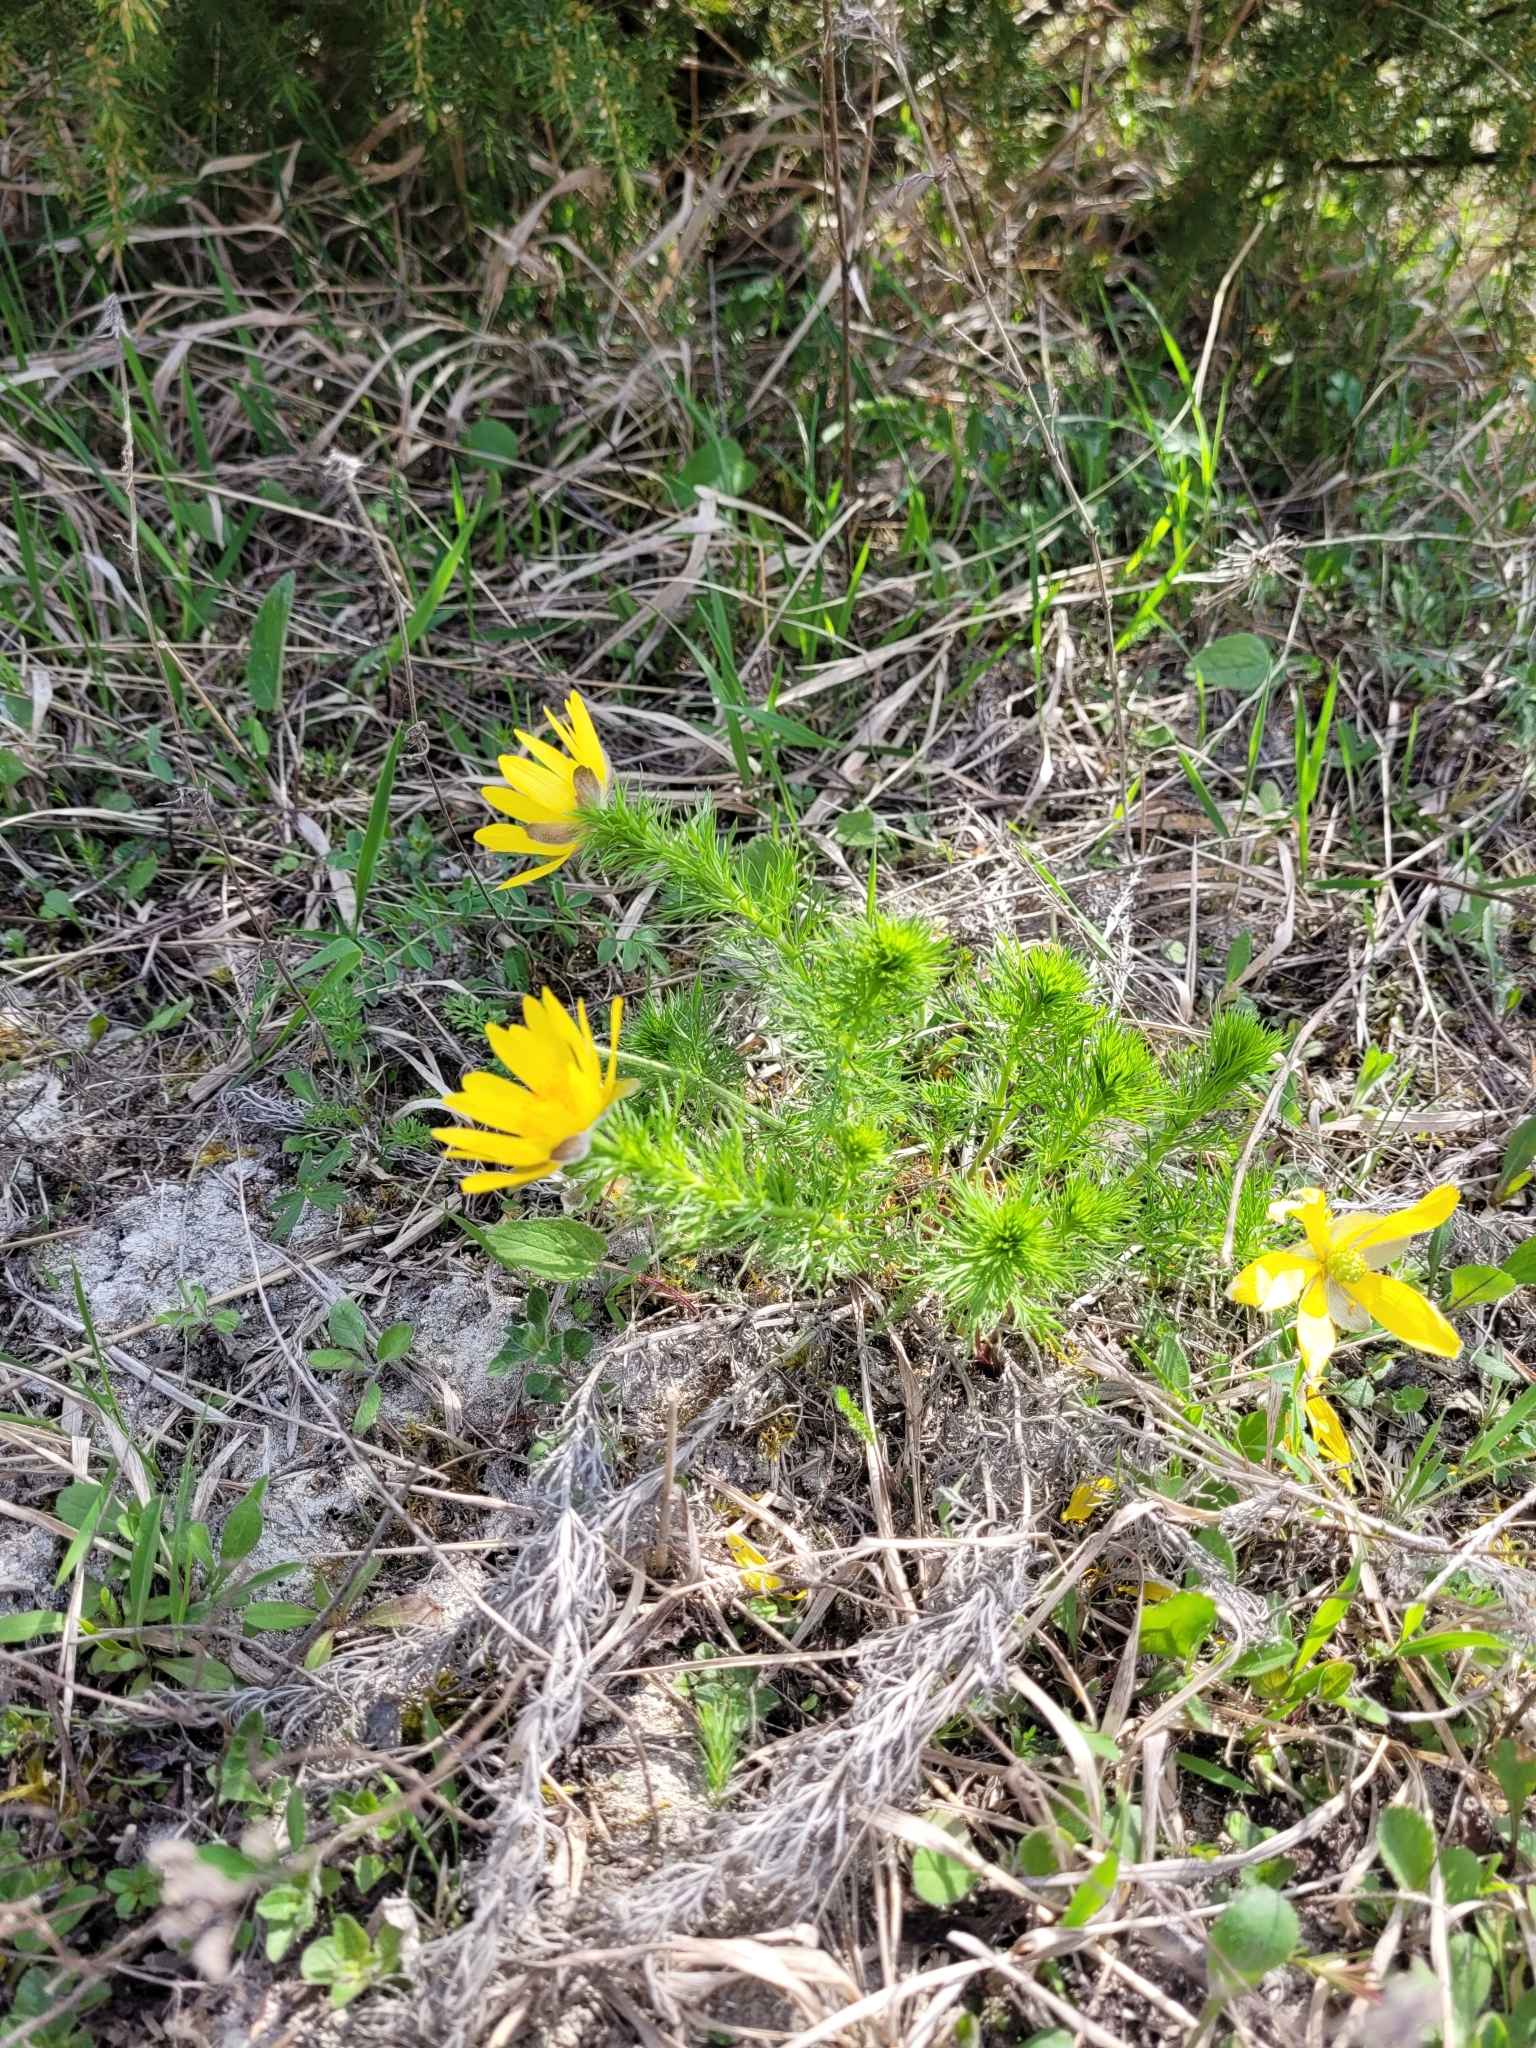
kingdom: Plantae
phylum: Tracheophyta
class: Magnoliopsida
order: Ranunculales
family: Ranunculaceae
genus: Adonis
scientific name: Adonis vernalis
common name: Yellow pheasants-eye
